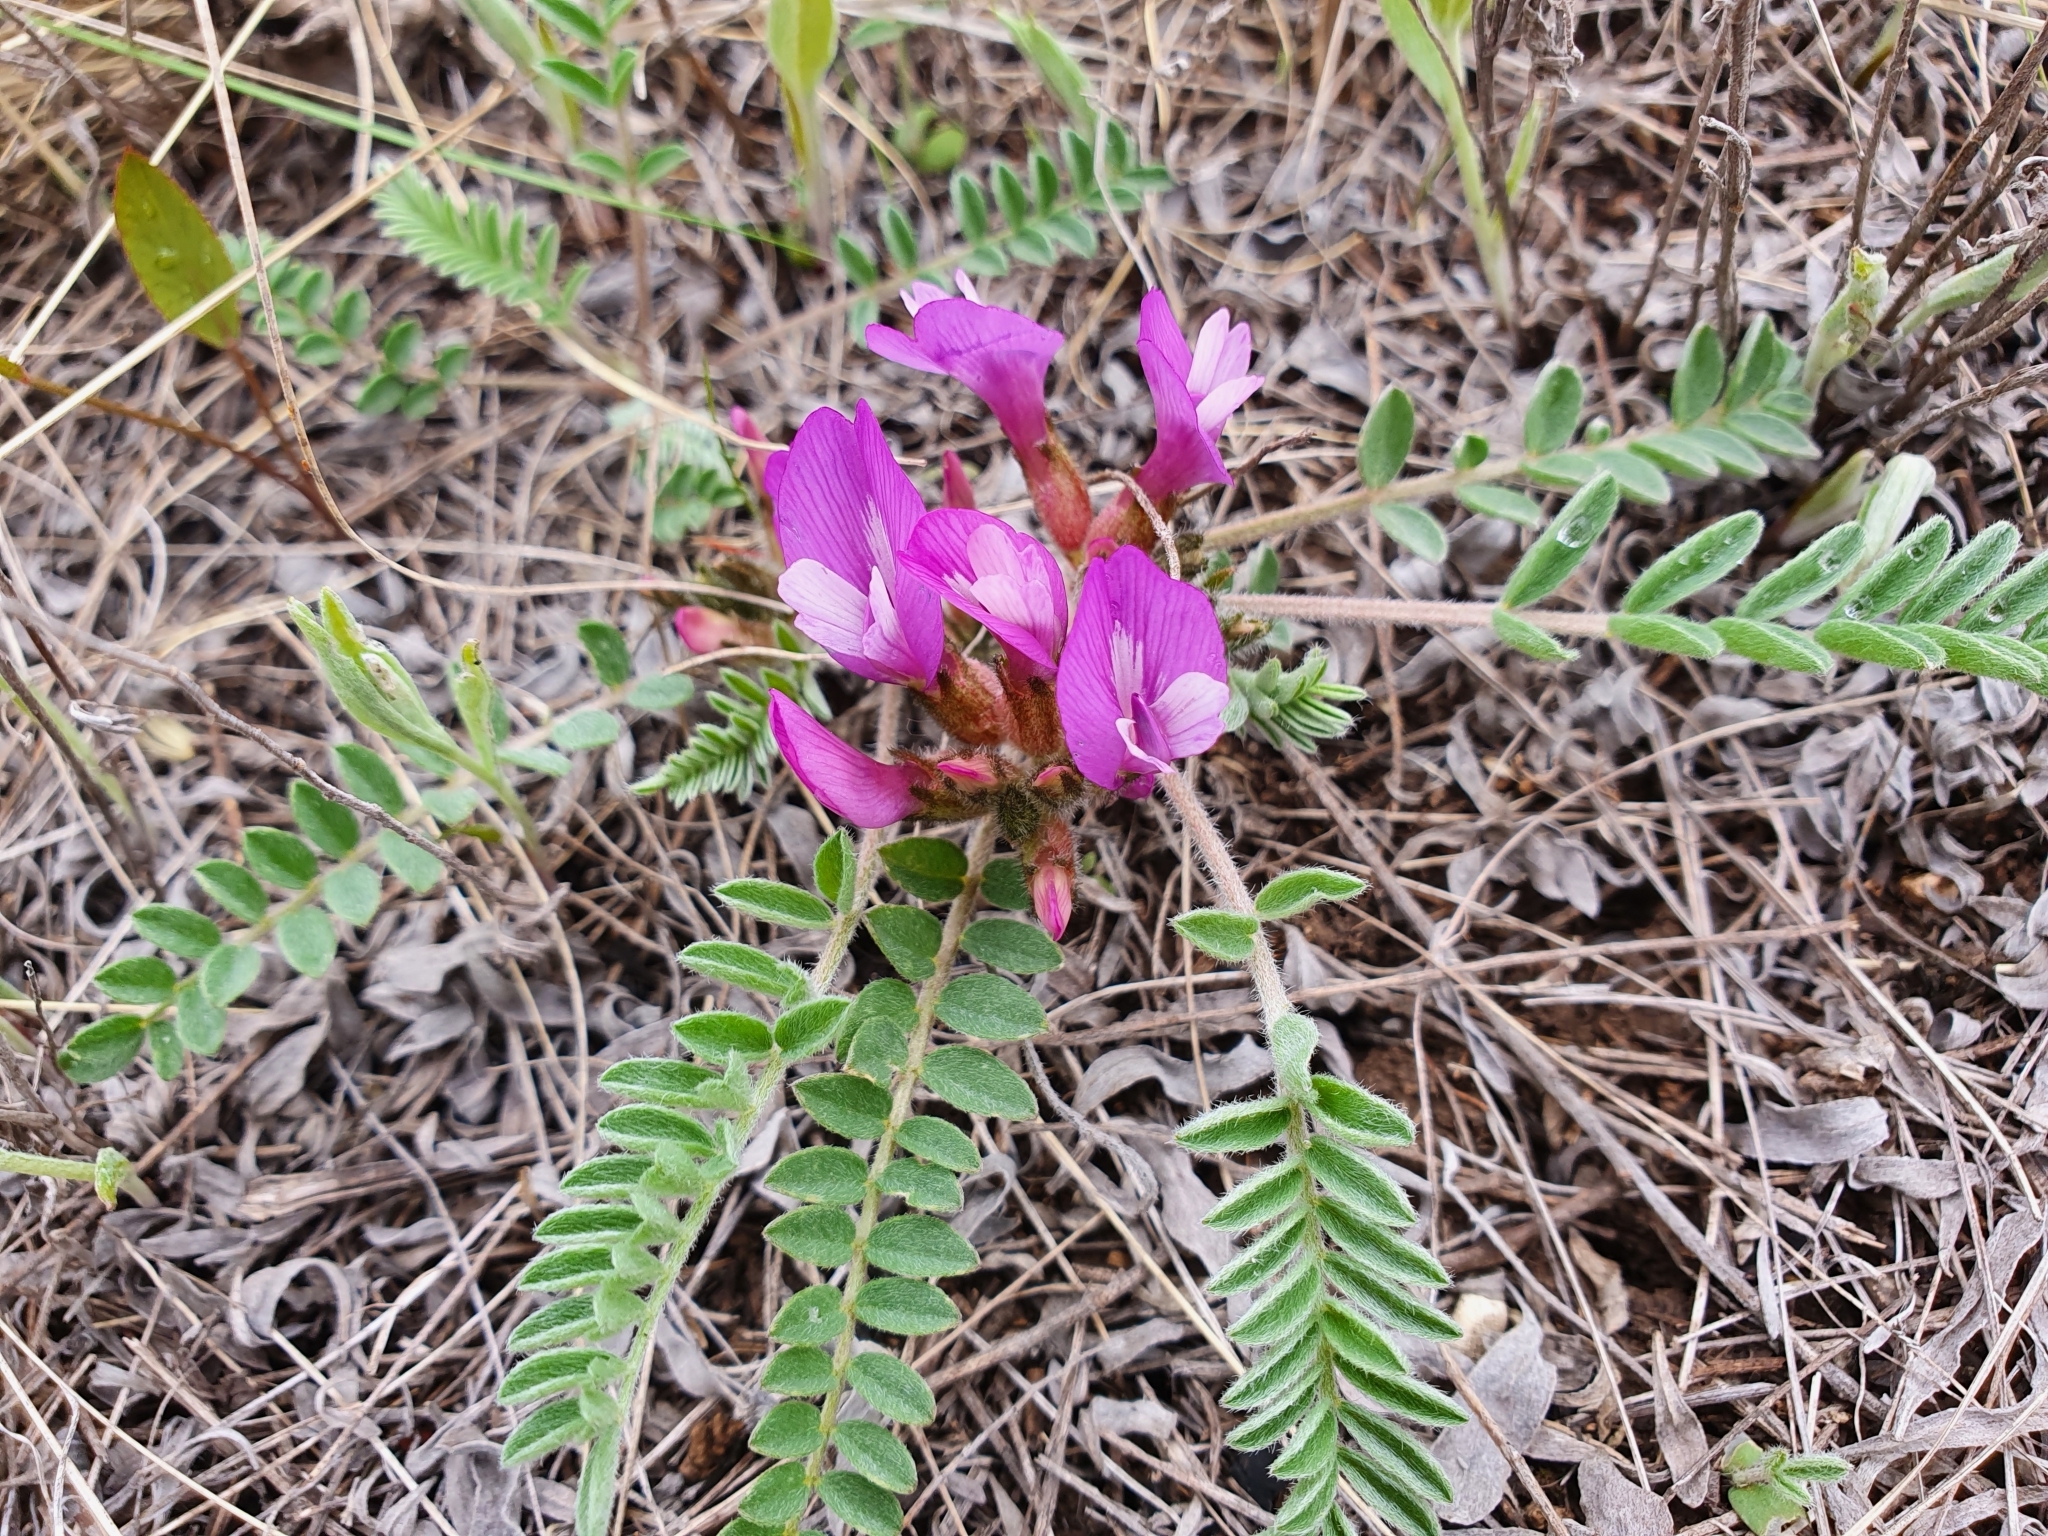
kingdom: Plantae
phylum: Tracheophyta
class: Magnoliopsida
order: Fabales
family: Fabaceae
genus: Astragalus
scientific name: Astragalus testiculatus
